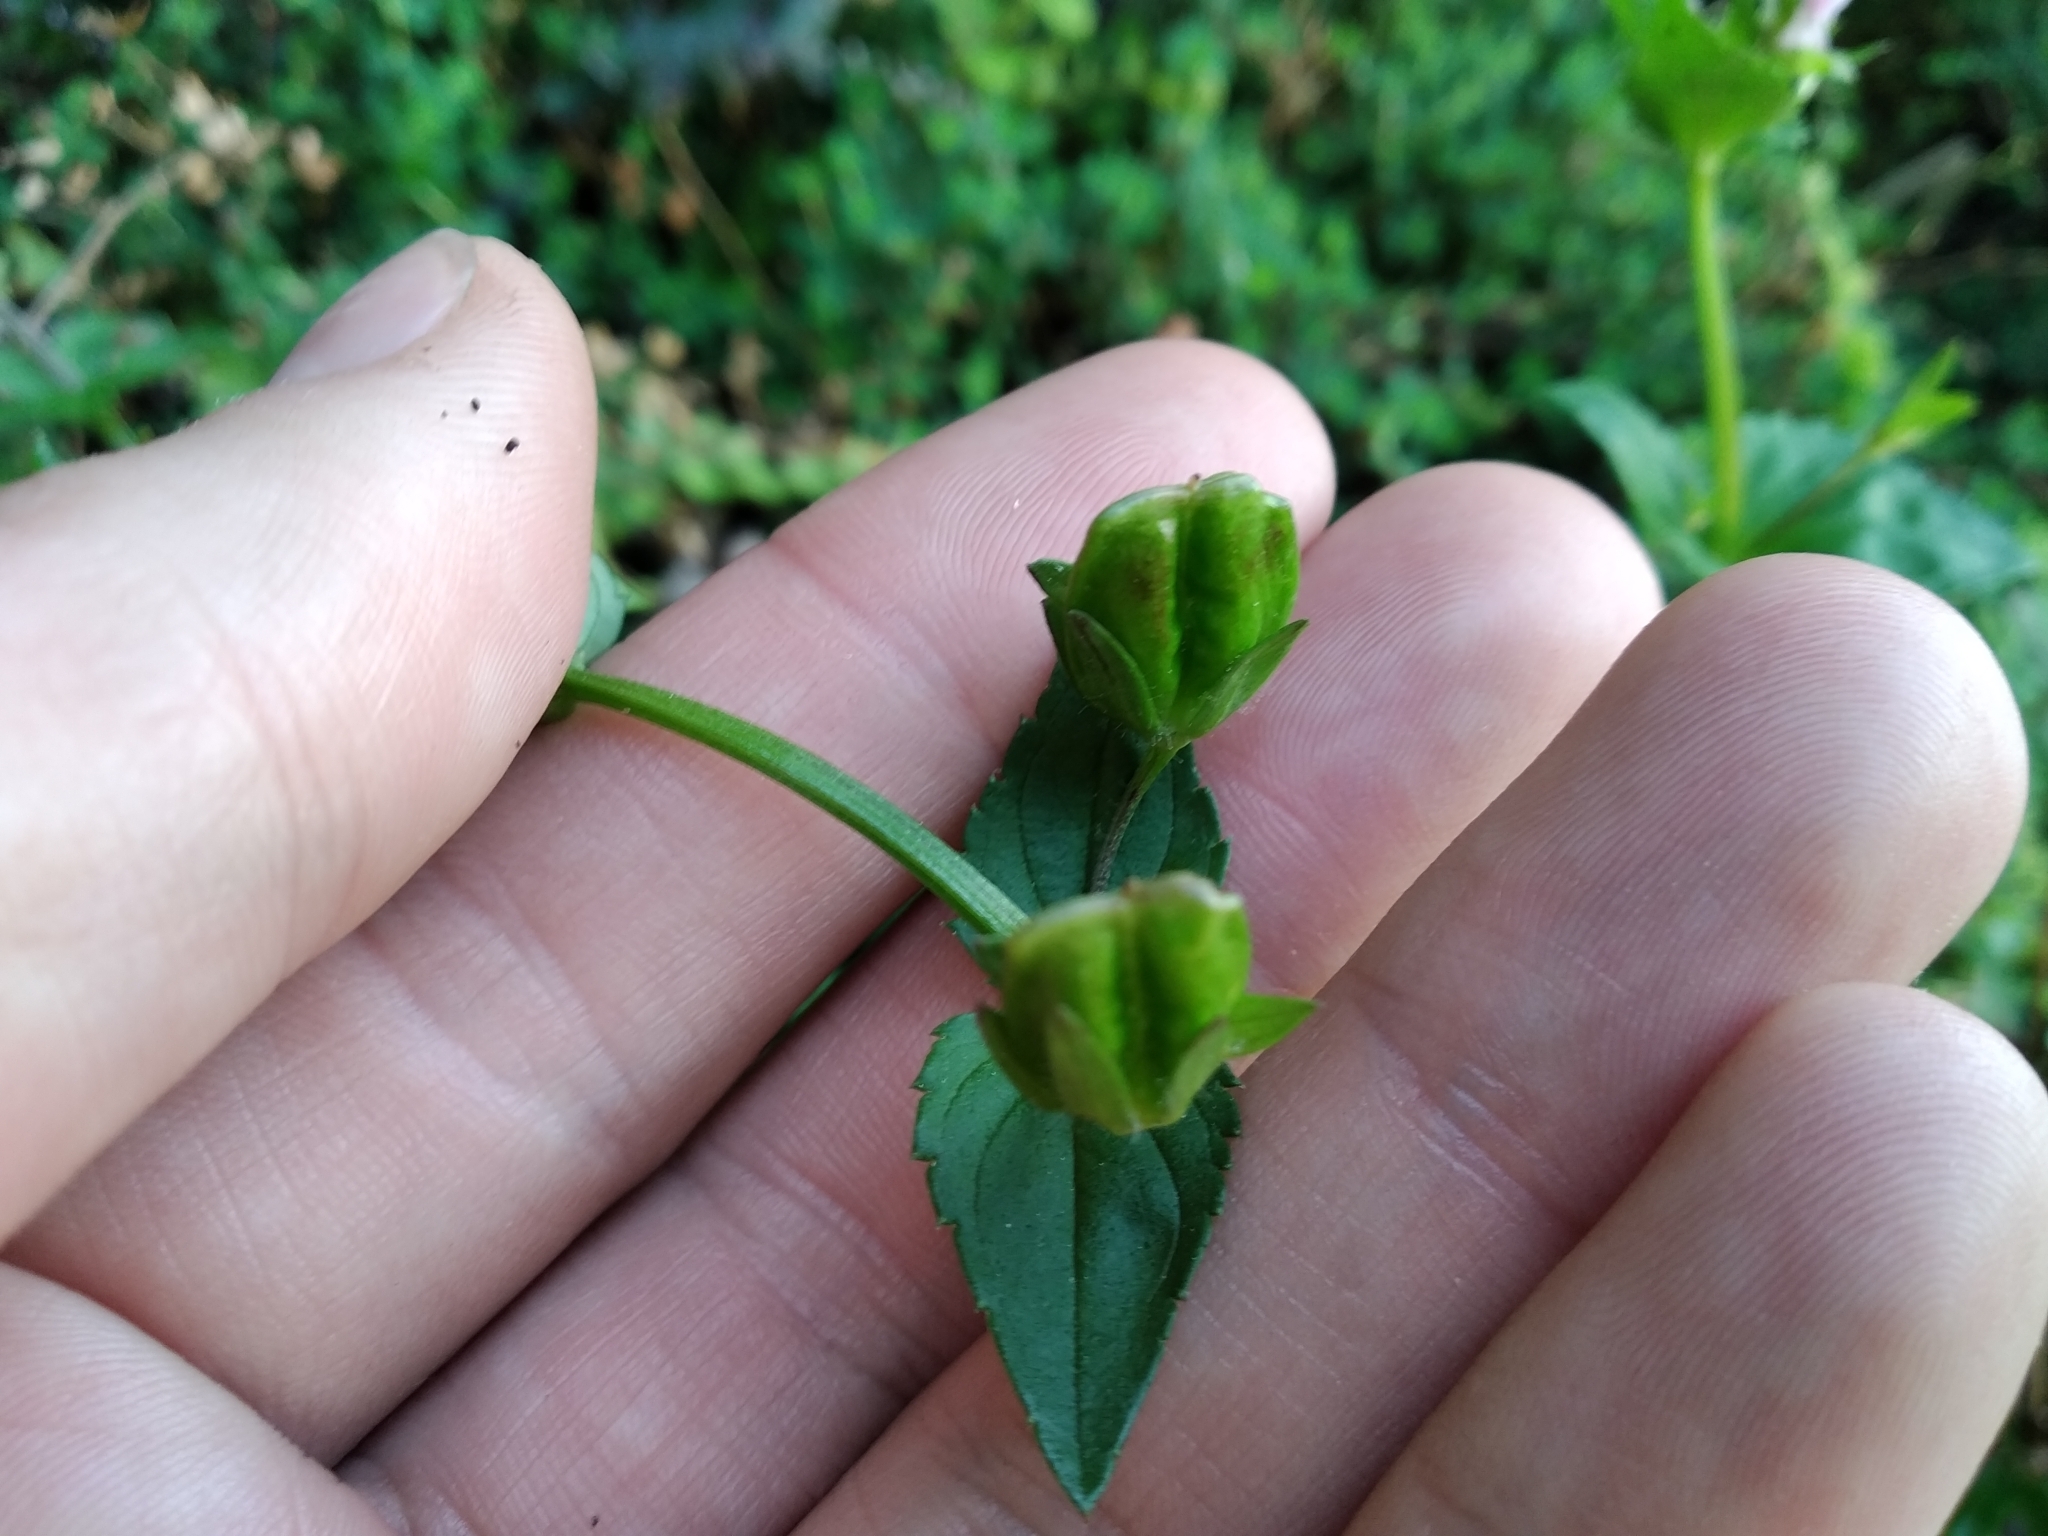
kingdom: Plantae
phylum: Tracheophyta
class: Magnoliopsida
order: Lamiales
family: Scrophulariaceae
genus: Nemesia
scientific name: Nemesia macrocarpa
